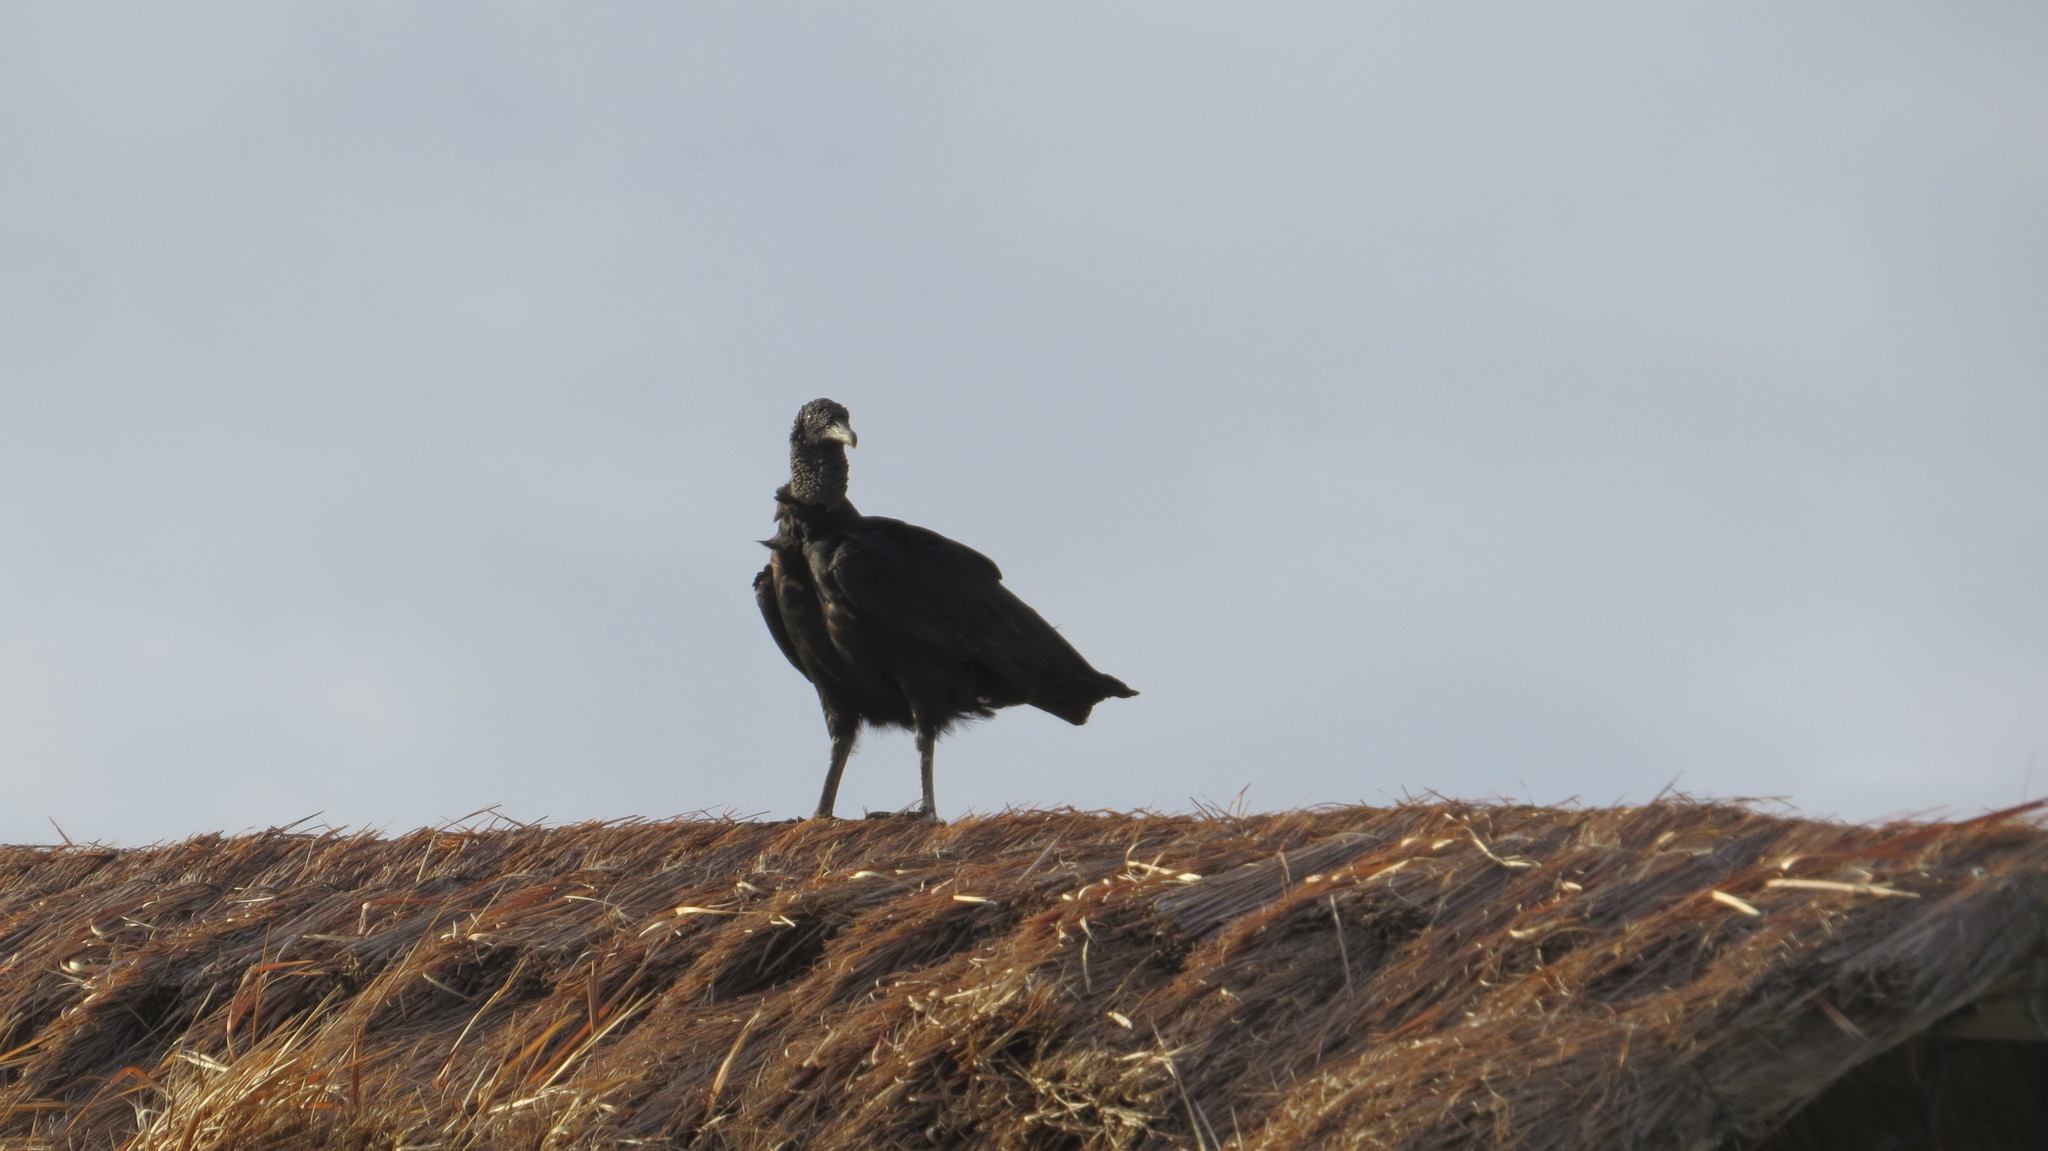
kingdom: Animalia
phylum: Chordata
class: Aves
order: Accipitriformes
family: Cathartidae
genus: Coragyps
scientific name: Coragyps atratus
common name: Black vulture
